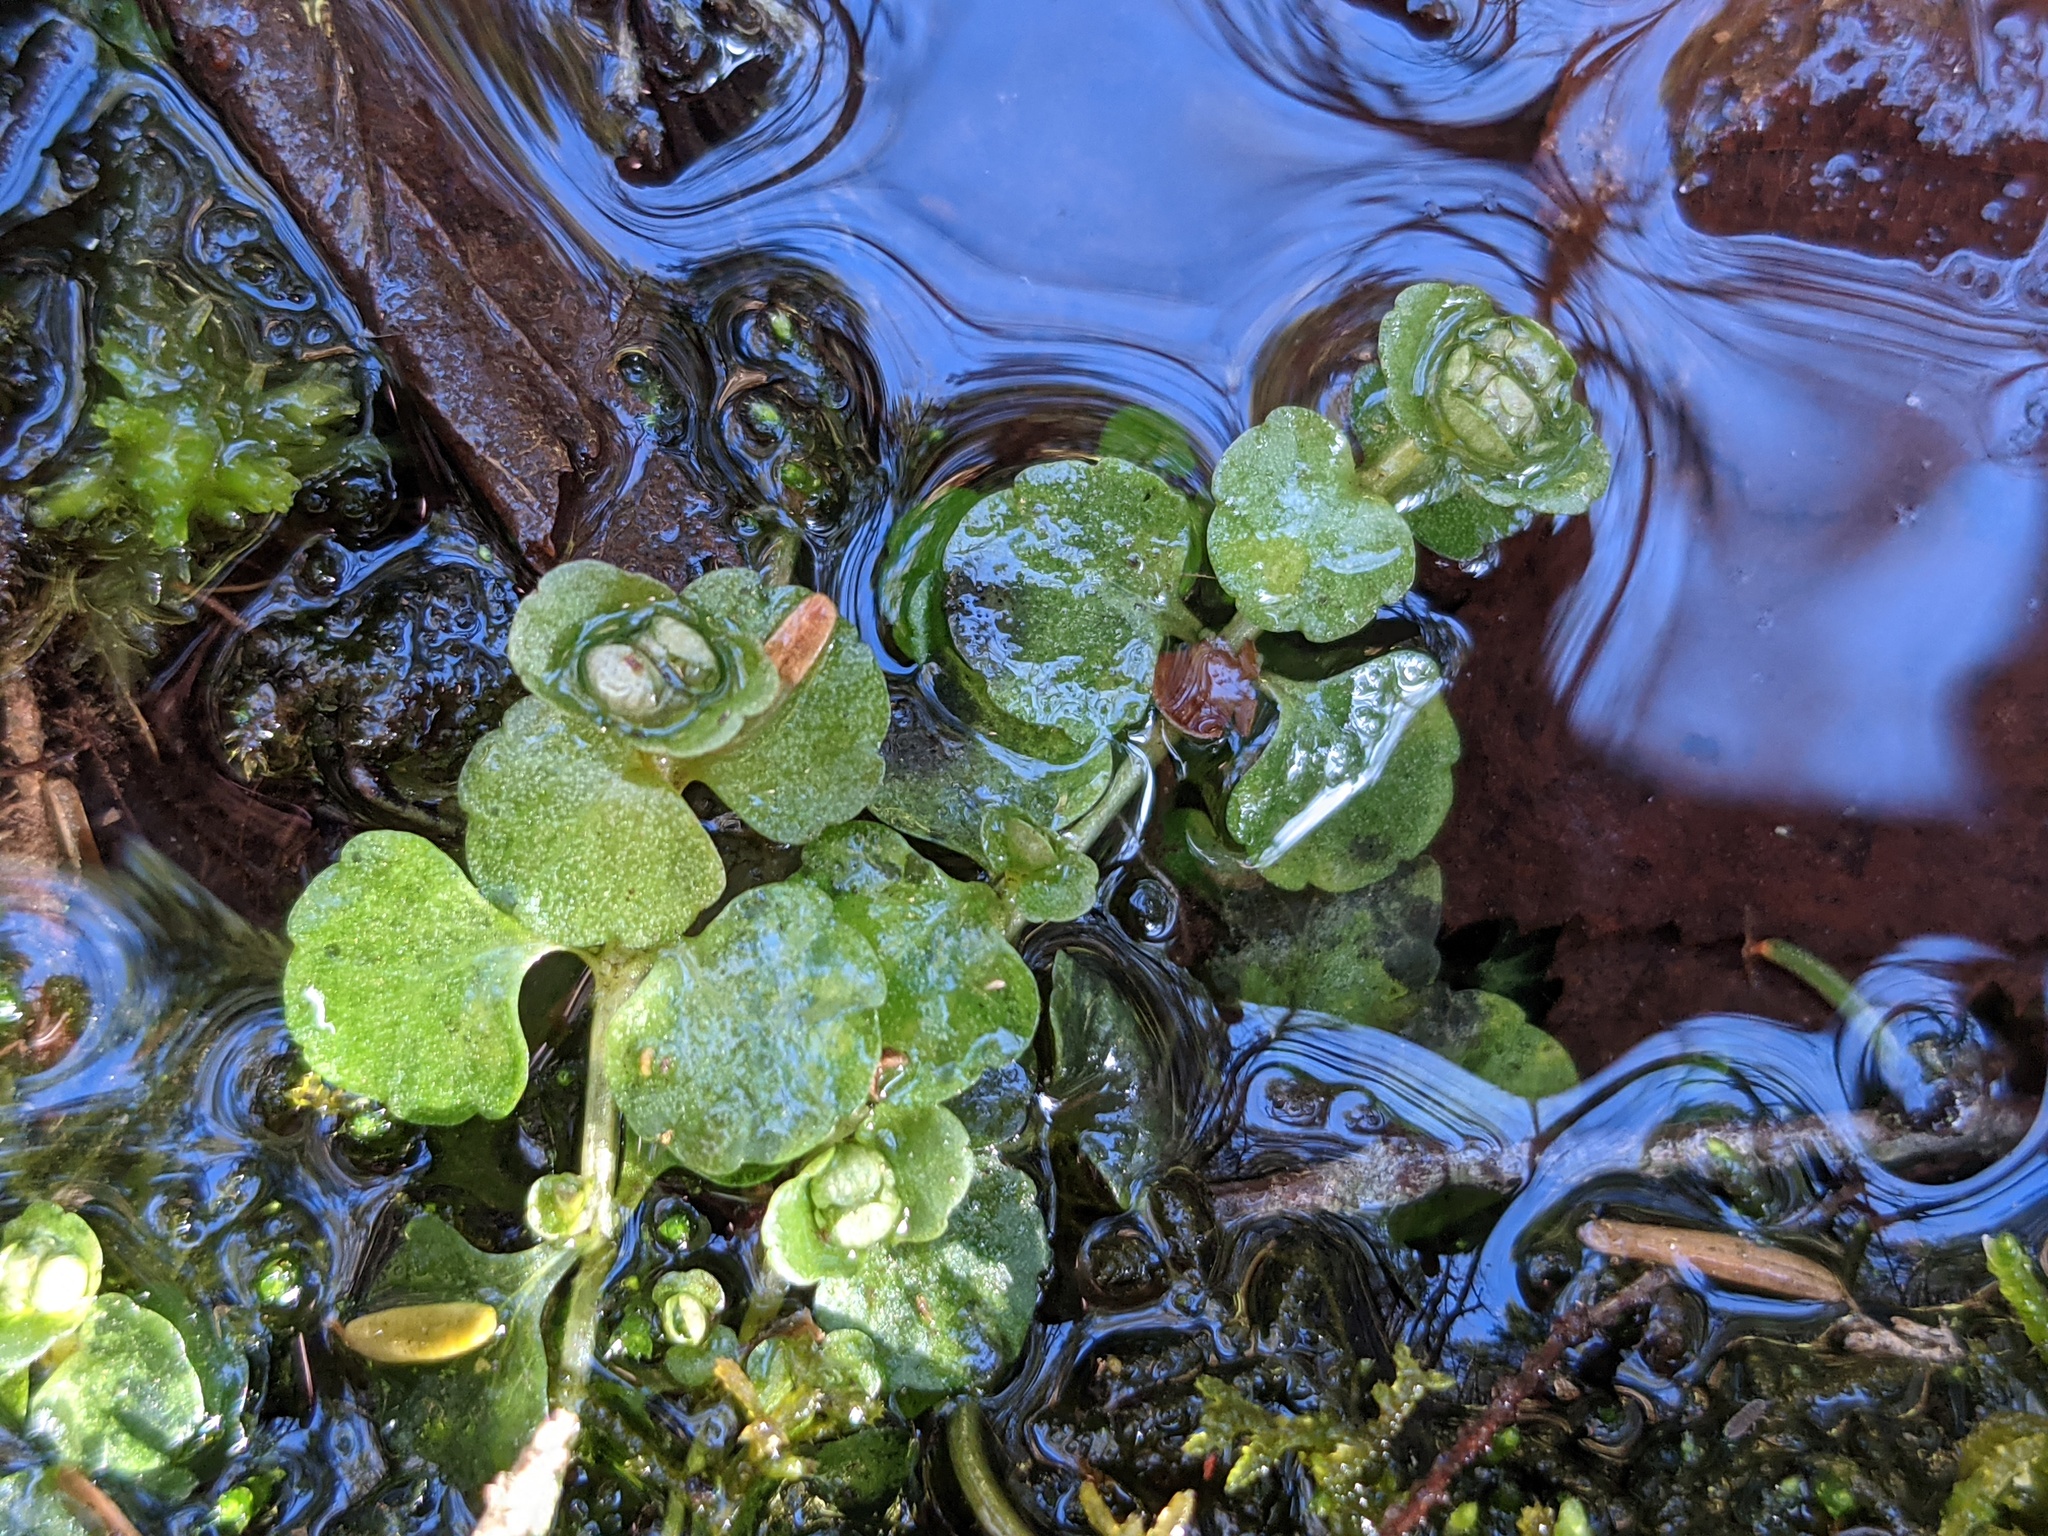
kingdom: Plantae
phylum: Tracheophyta
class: Magnoliopsida
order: Saxifragales
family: Saxifragaceae
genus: Chrysosplenium
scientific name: Chrysosplenium americanum
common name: American golden-saxifrage
